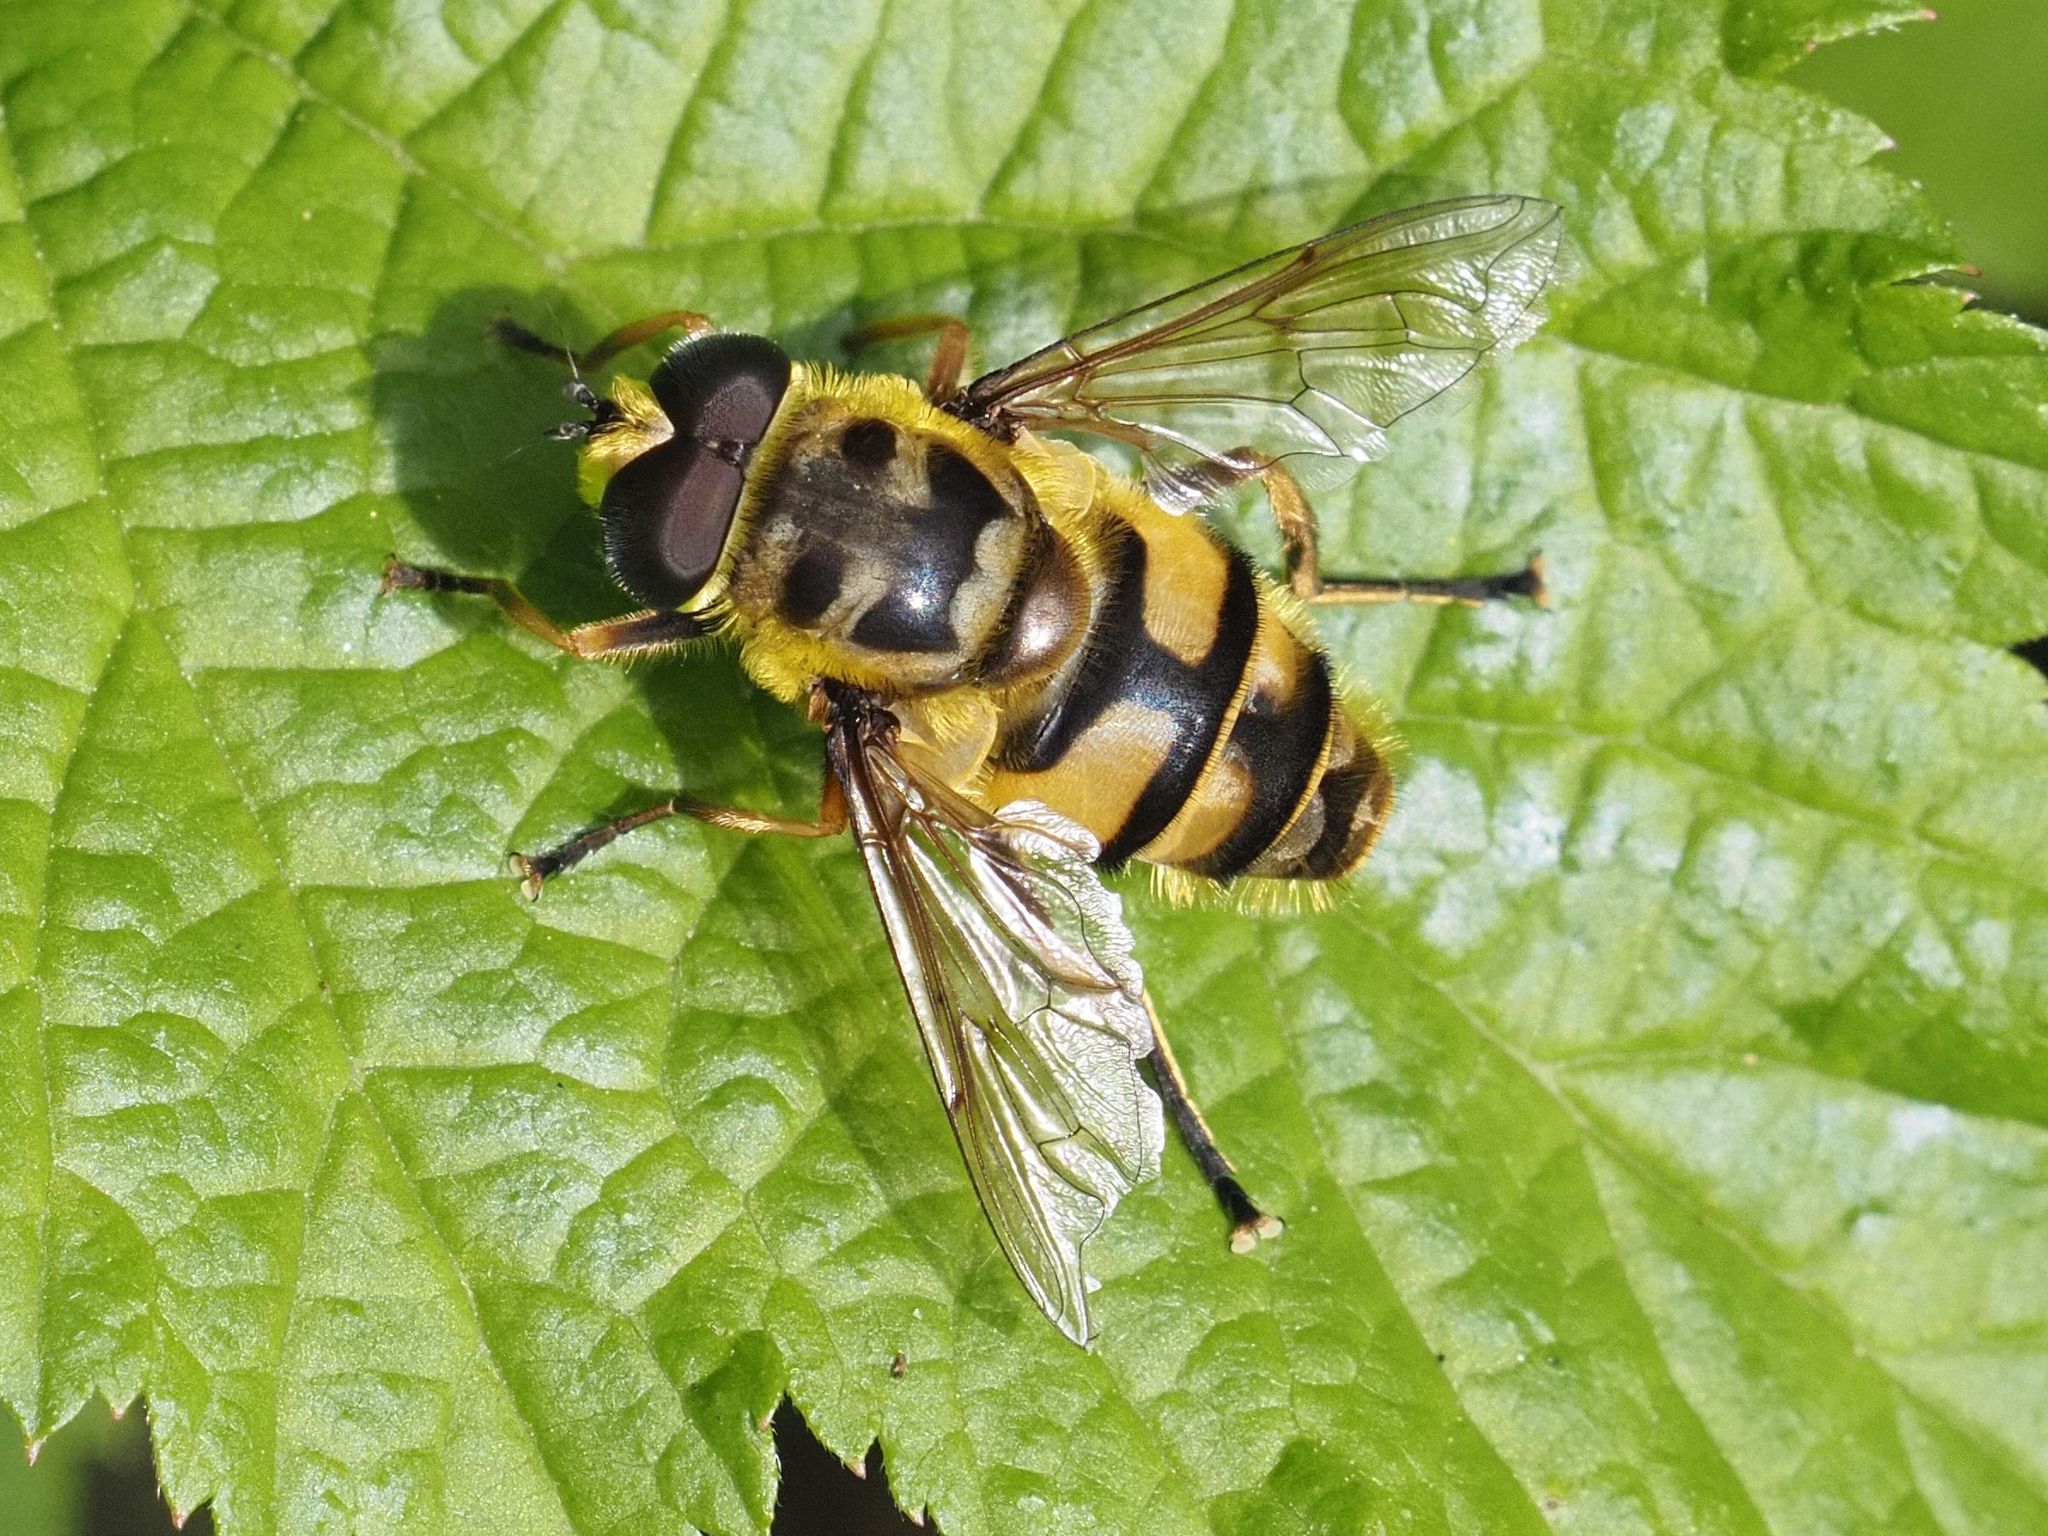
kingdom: Animalia
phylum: Arthropoda
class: Insecta
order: Diptera
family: Syrphidae
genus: Myathropa
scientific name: Myathropa florea
